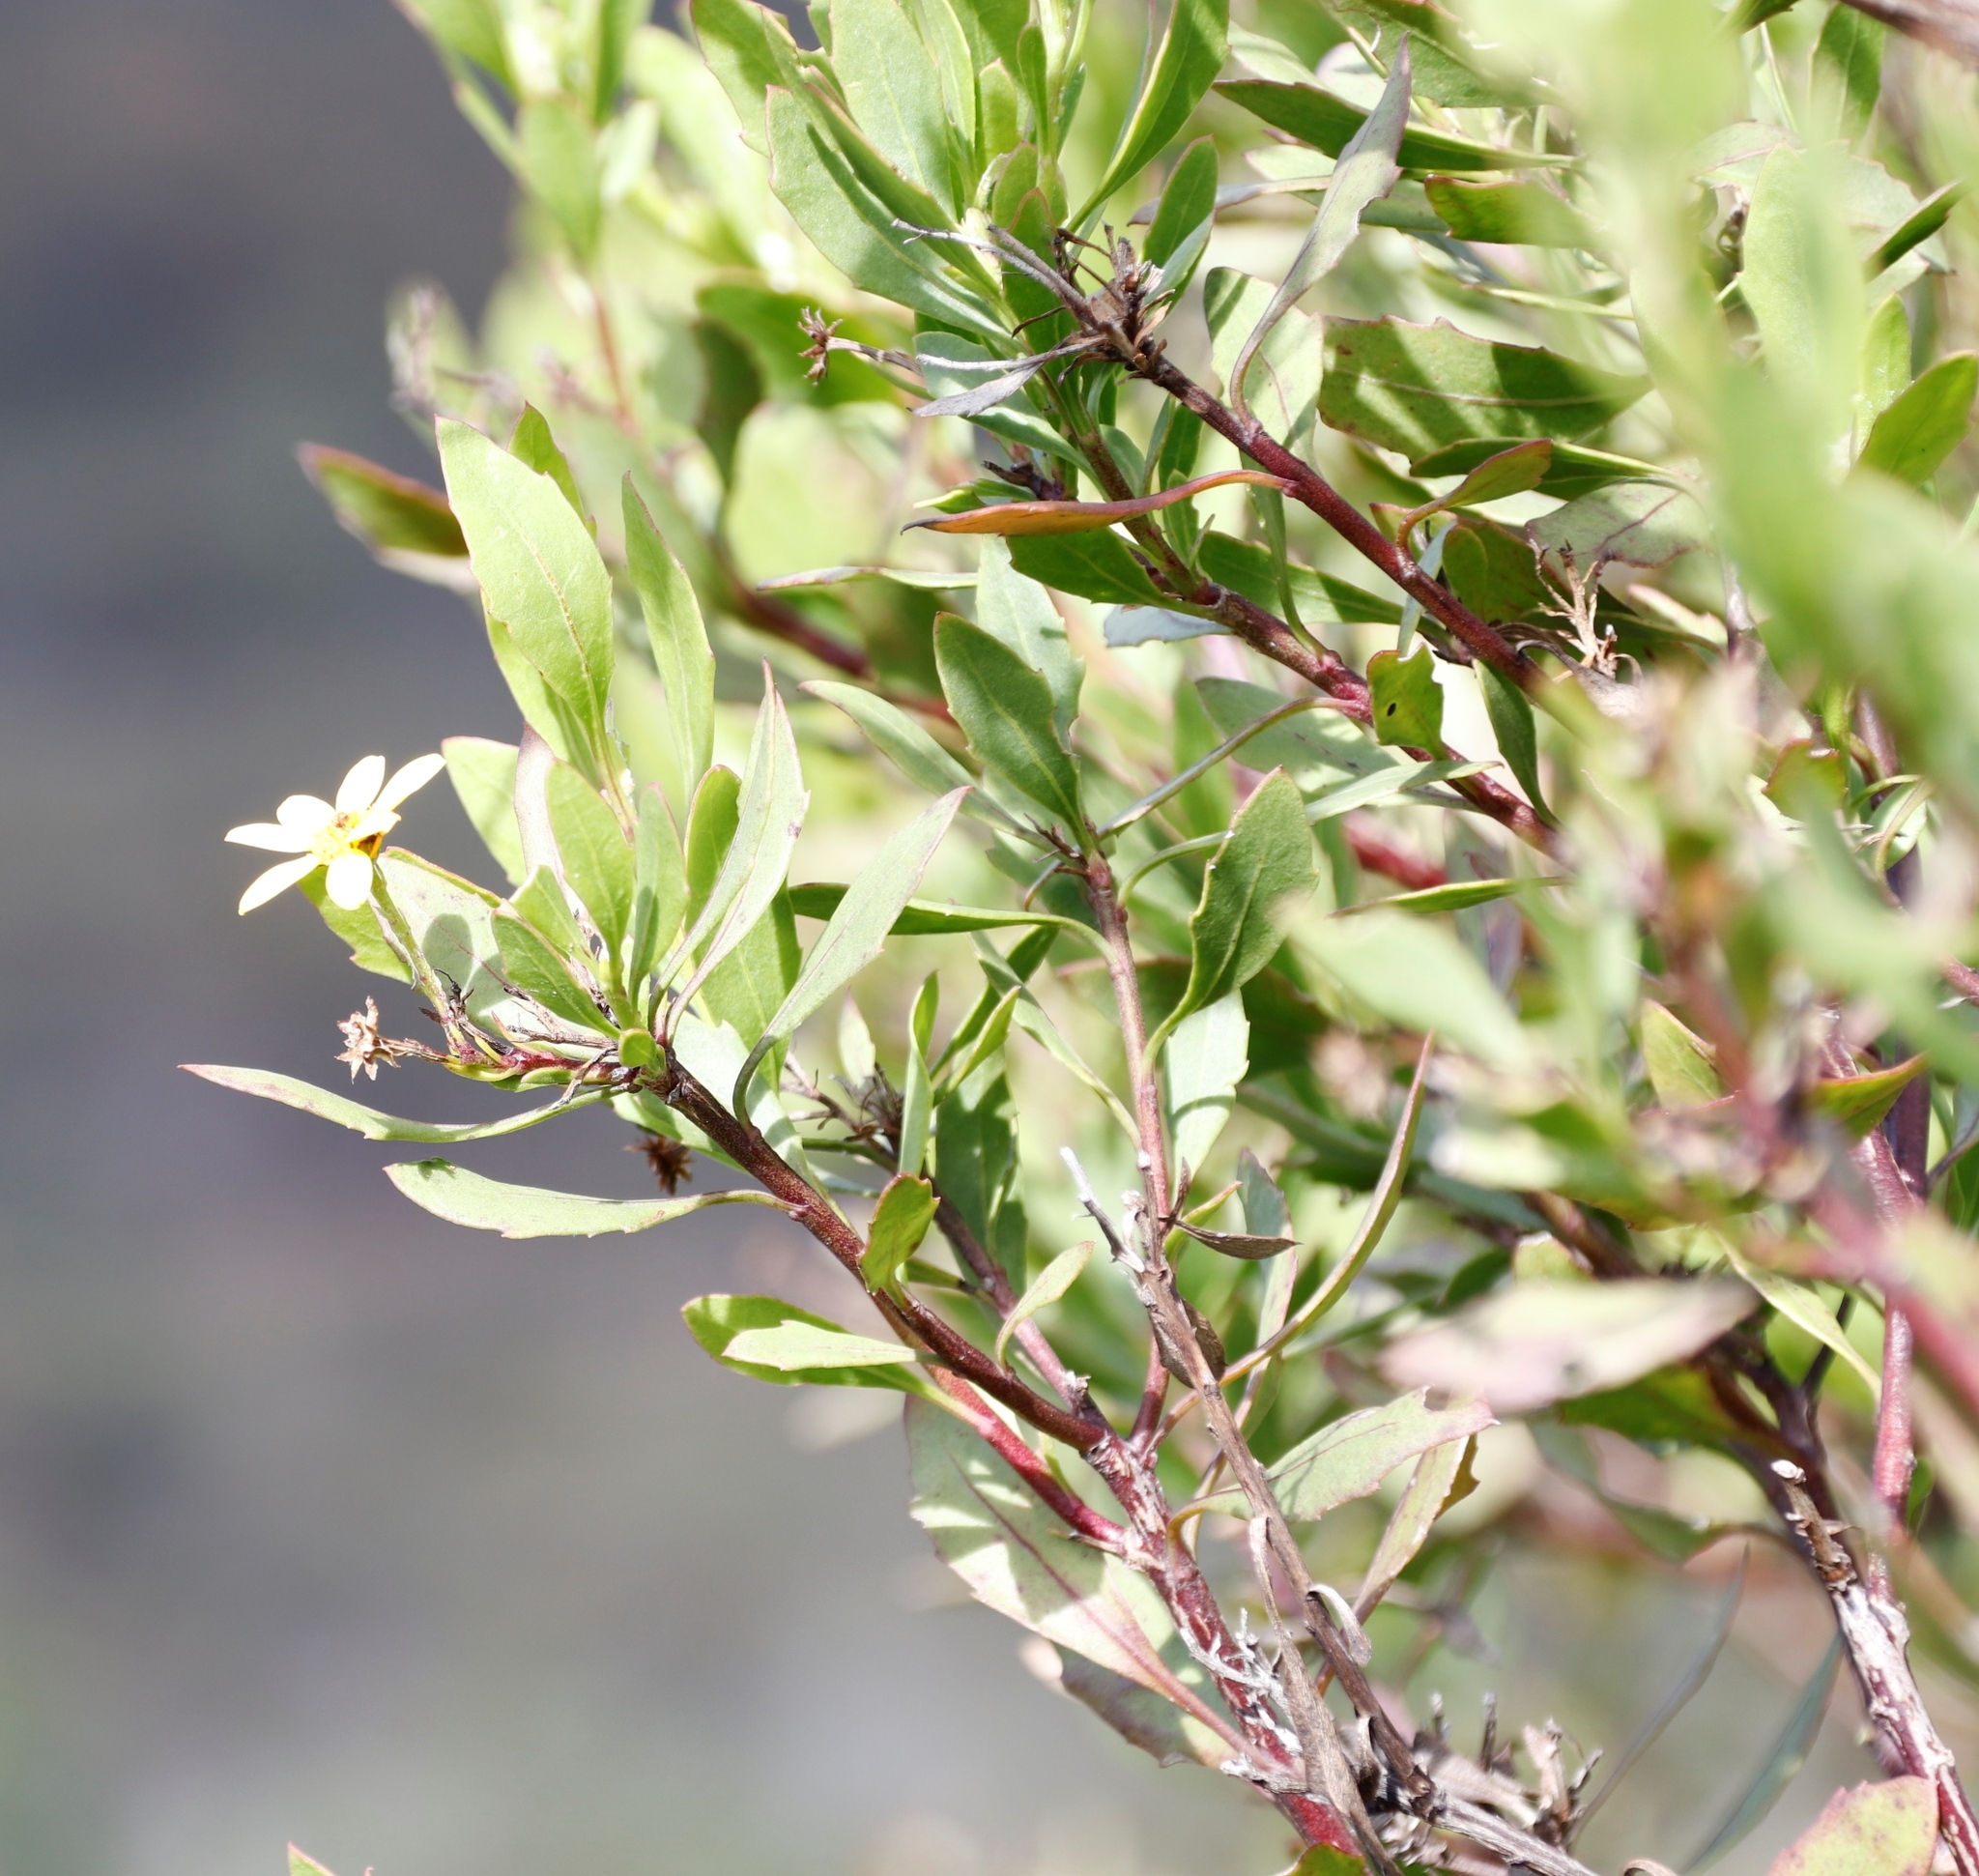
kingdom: Plantae
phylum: Tracheophyta
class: Magnoliopsida
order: Asterales
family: Asteraceae
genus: Osteospermum
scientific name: Osteospermum moniliferum
